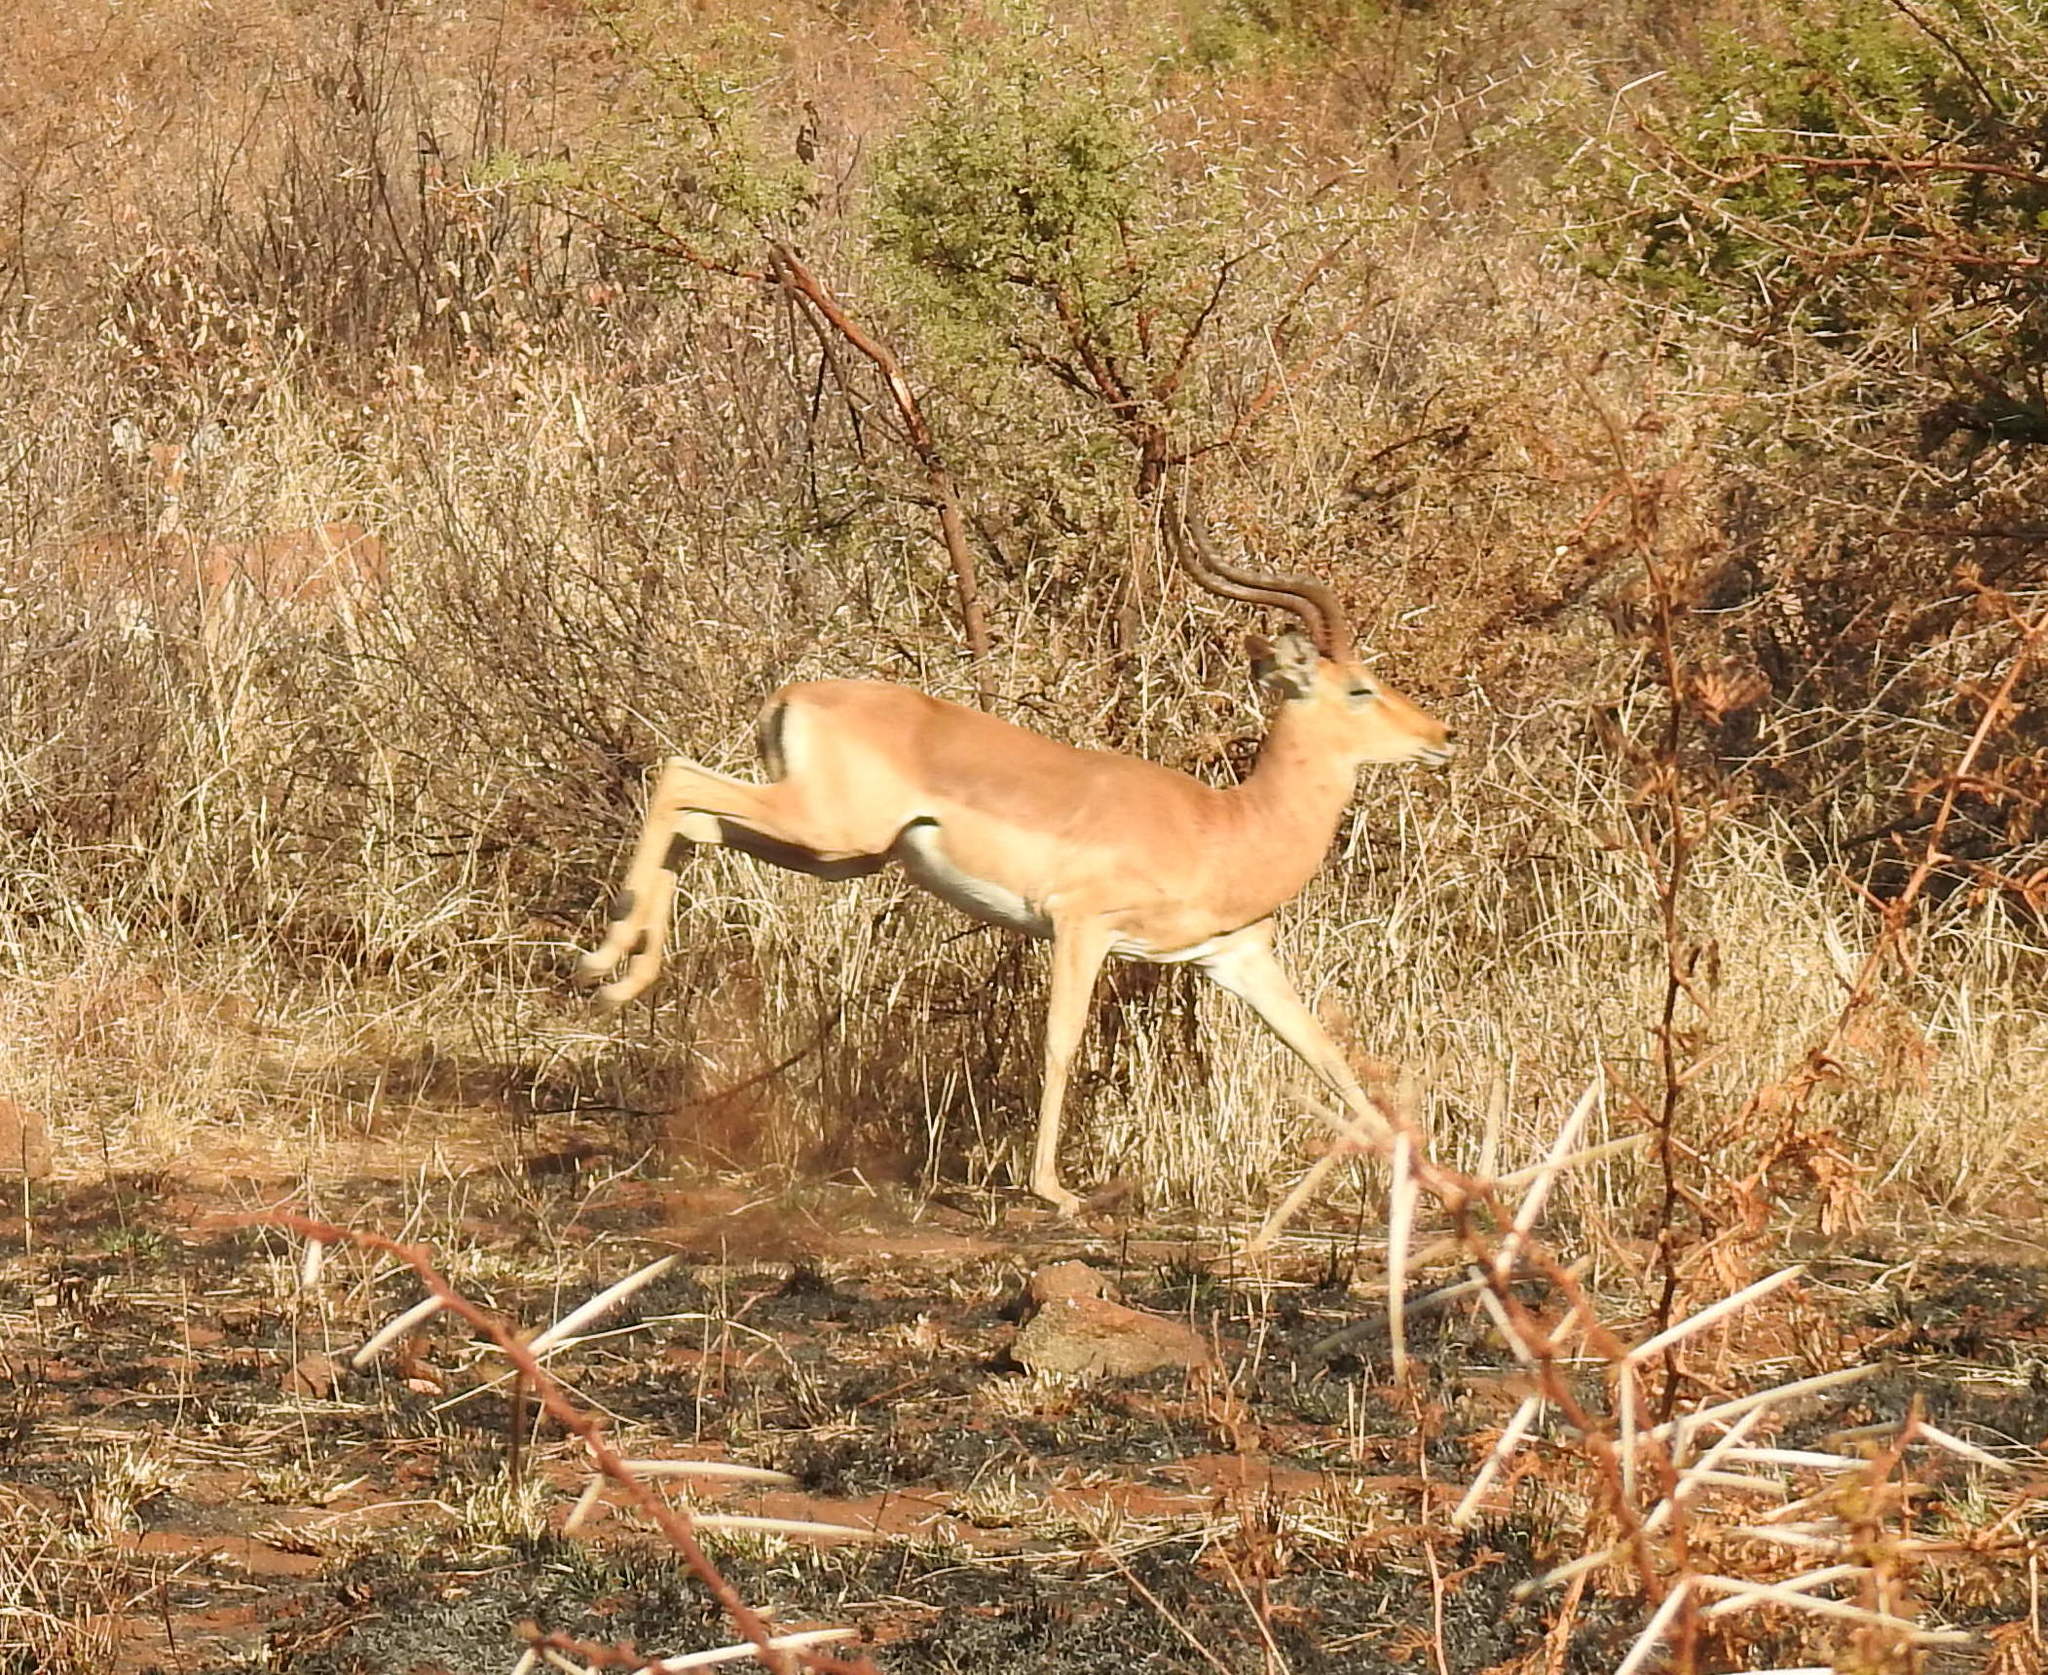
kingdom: Animalia
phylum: Chordata
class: Mammalia
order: Artiodactyla
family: Bovidae
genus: Aepyceros
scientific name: Aepyceros melampus
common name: Impala
